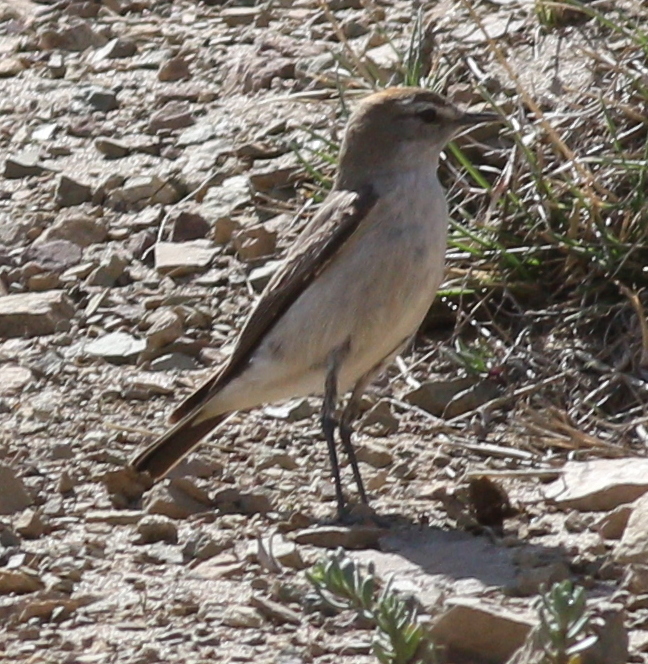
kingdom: Animalia
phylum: Chordata
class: Aves
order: Passeriformes
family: Tyrannidae
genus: Muscisaxicola
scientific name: Muscisaxicola albilora
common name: White-browed ground tyrant
